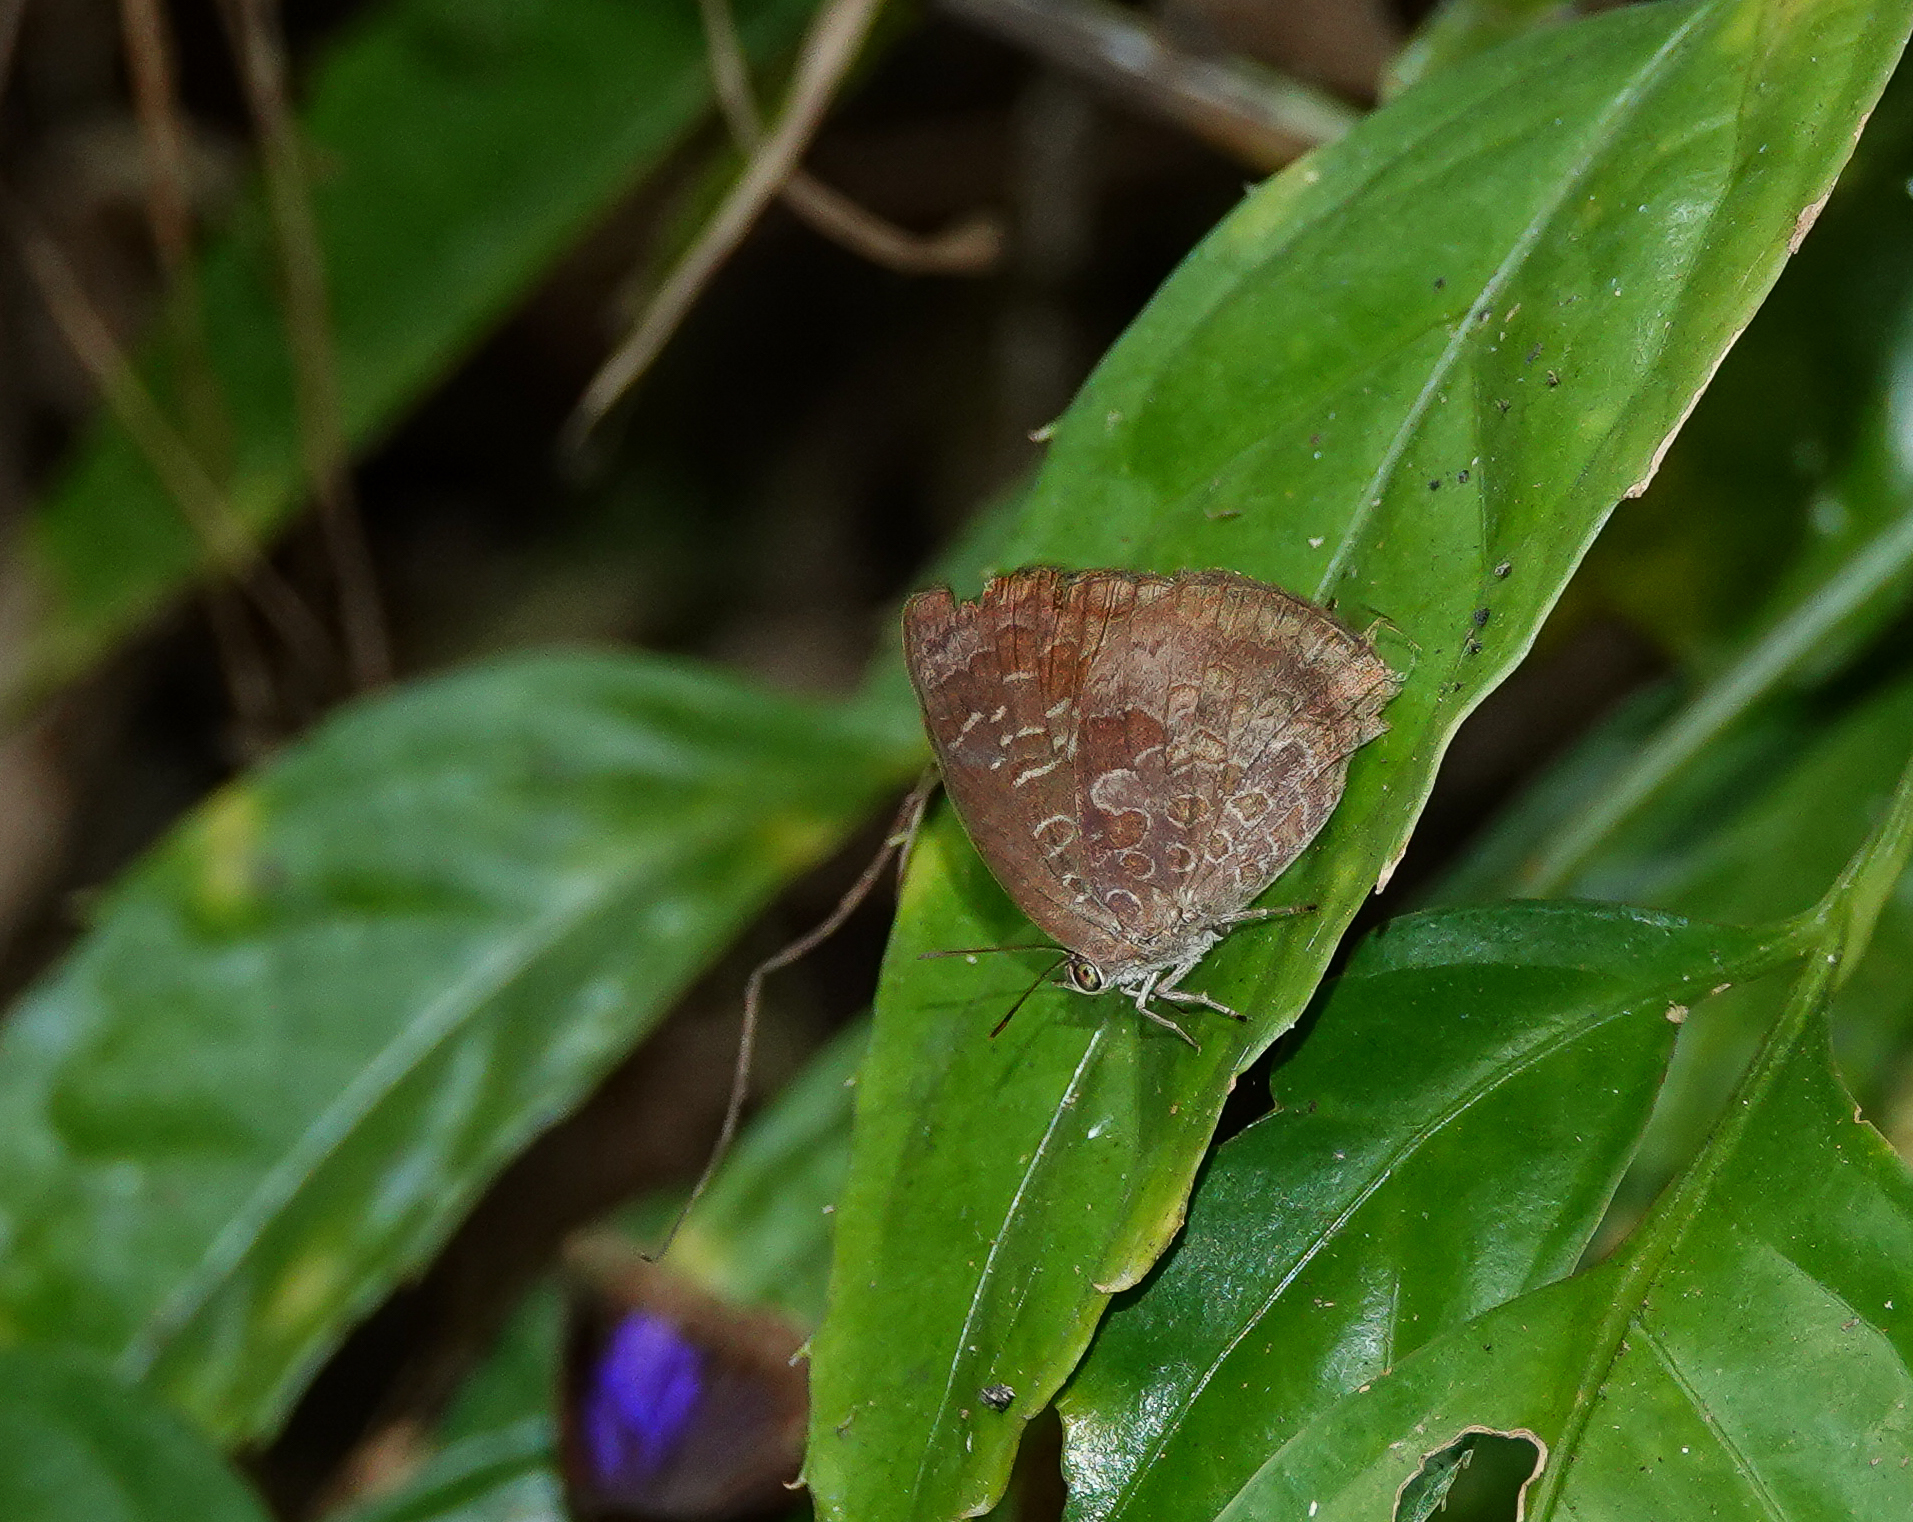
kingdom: Animalia
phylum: Arthropoda
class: Insecta
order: Lepidoptera
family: Lycaenidae
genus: Arhopala
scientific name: Arhopala bazaloides
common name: Tamil oakblue
